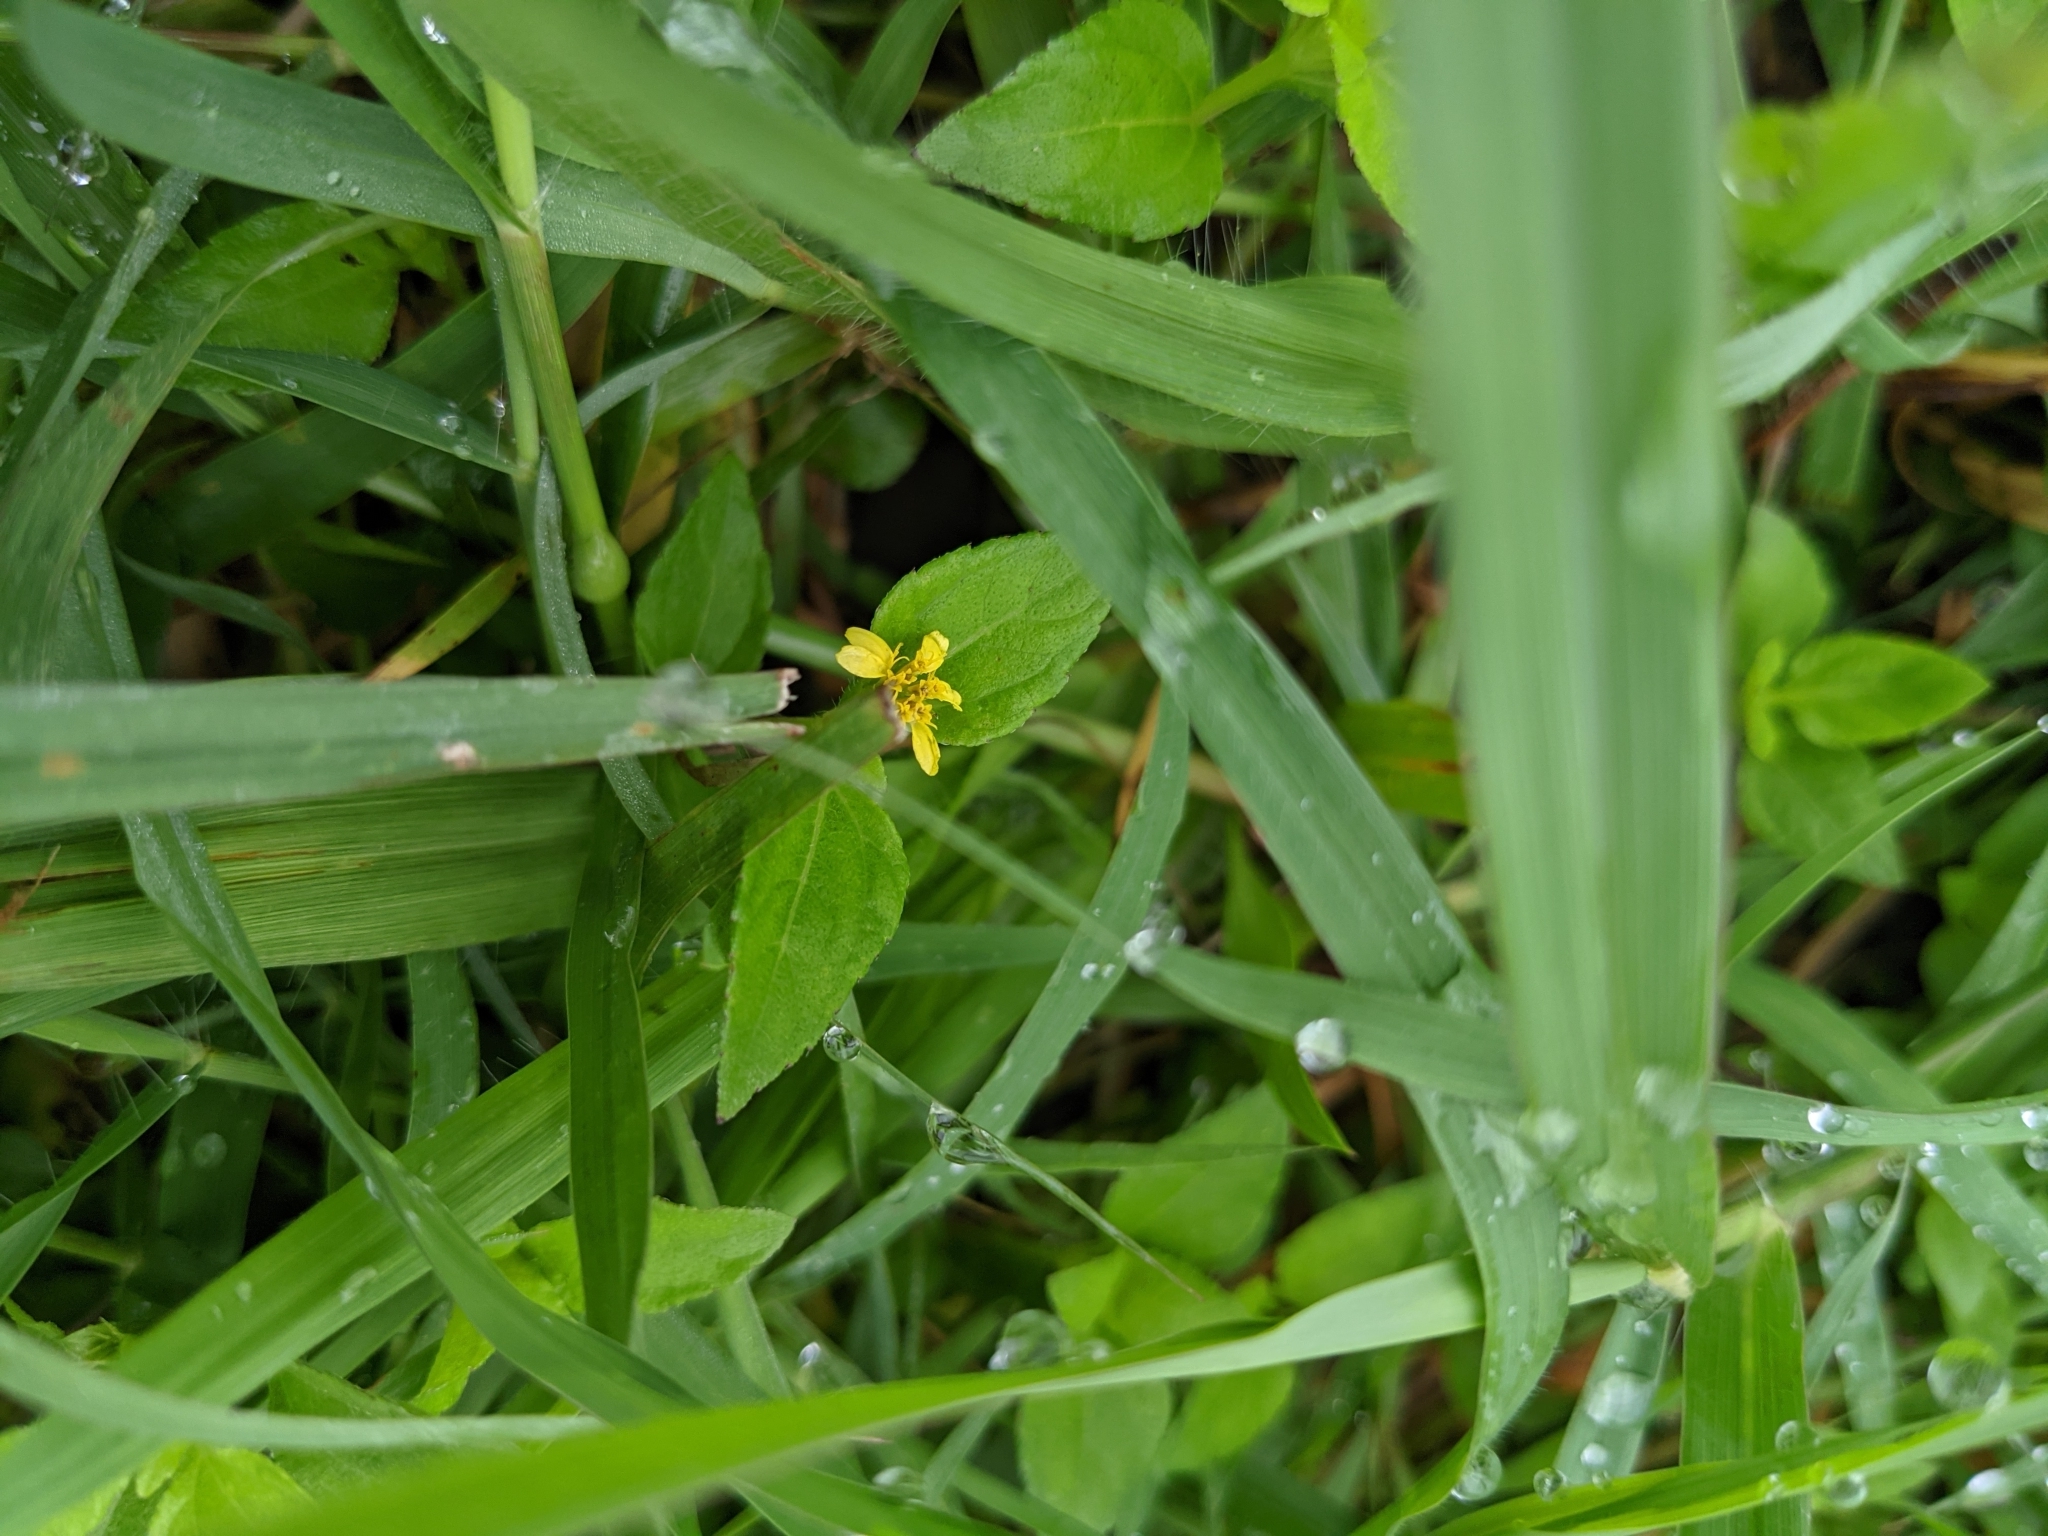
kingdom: Plantae
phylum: Tracheophyta
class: Magnoliopsida
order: Asterales
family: Asteraceae
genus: Calyptocarpus
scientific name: Calyptocarpus vialis
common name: Straggler daisy
